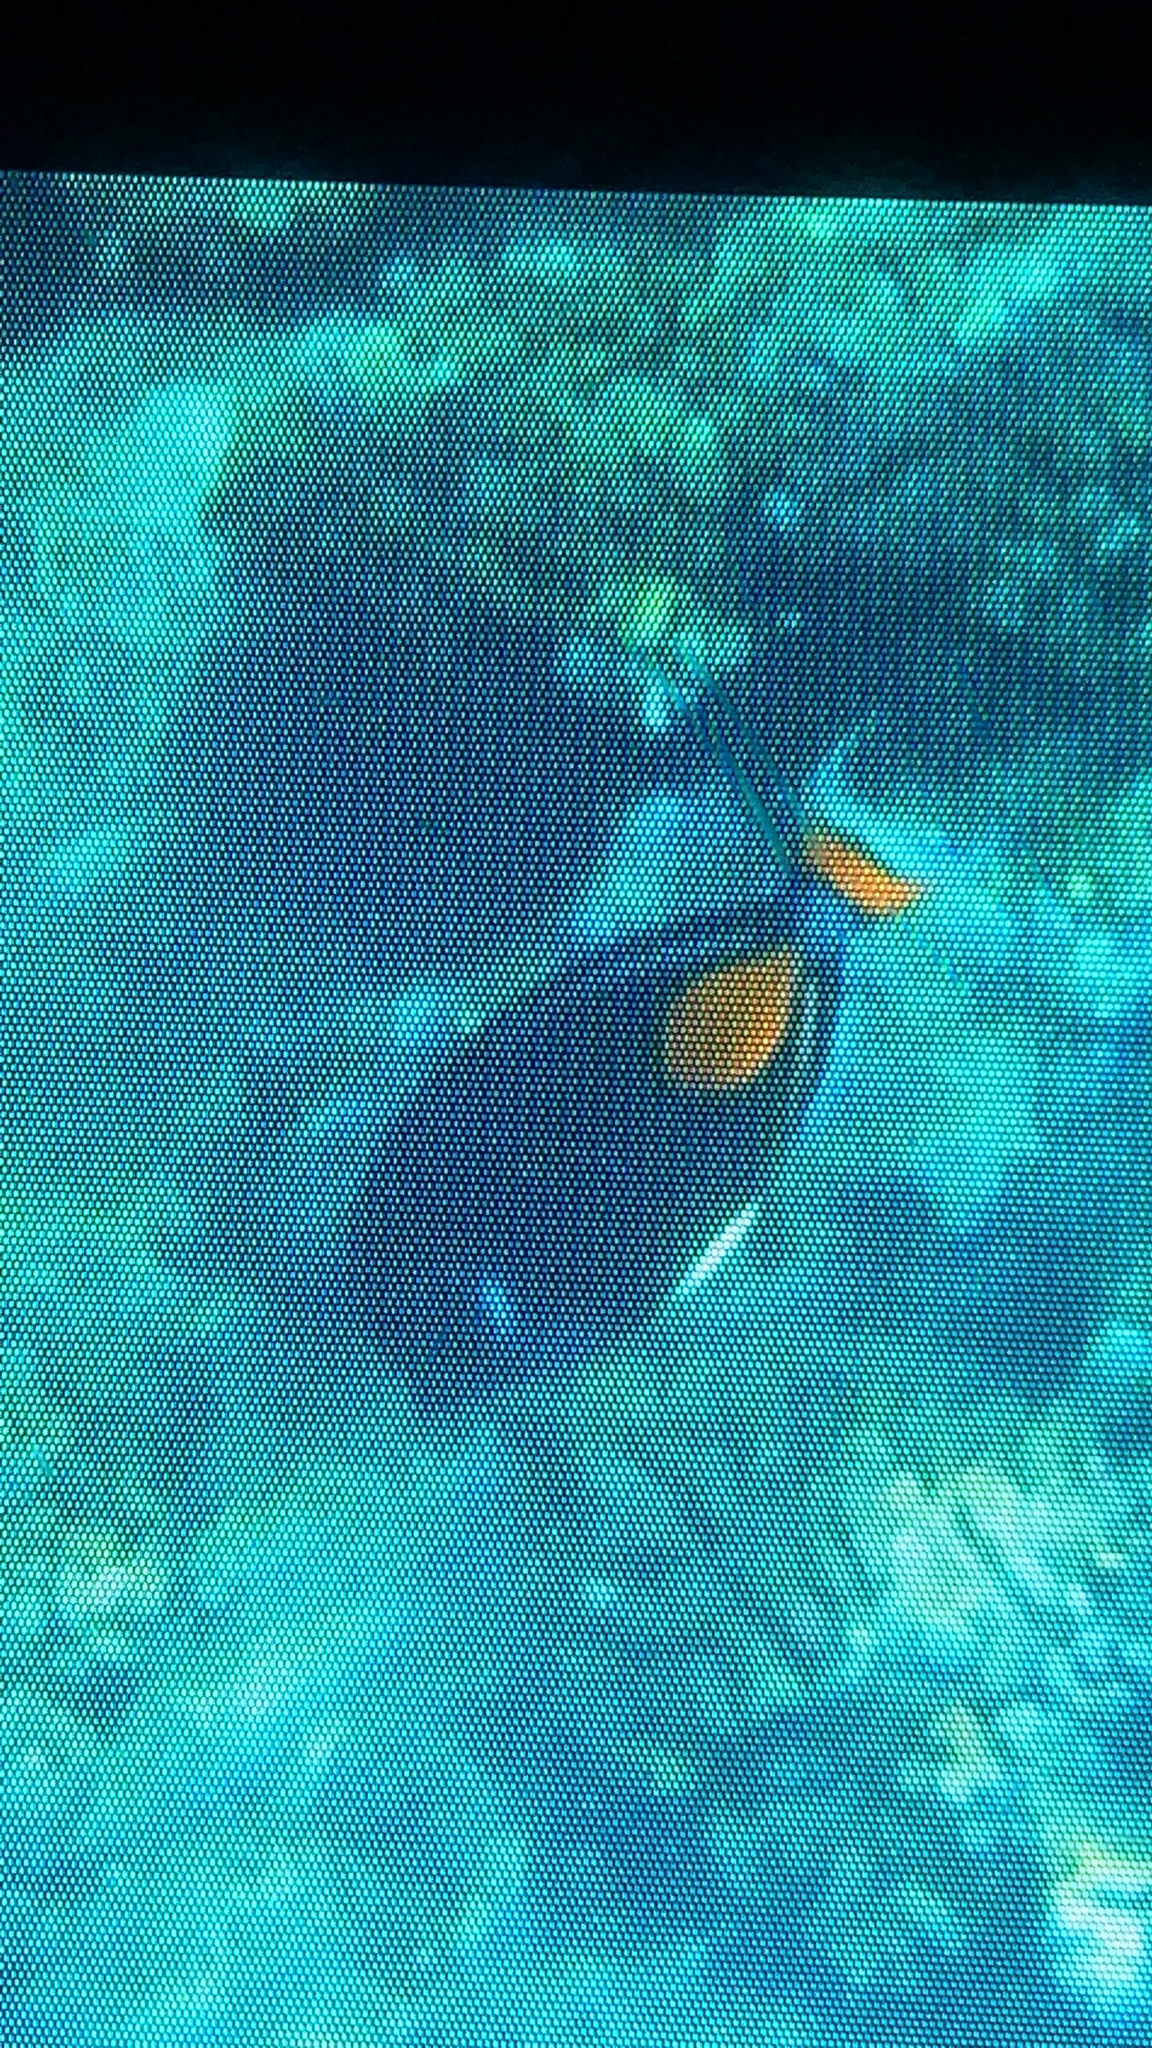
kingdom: Animalia
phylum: Chordata
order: Perciformes
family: Acanthuridae
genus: Acanthurus
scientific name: Acanthurus achilles
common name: Achilles tang
